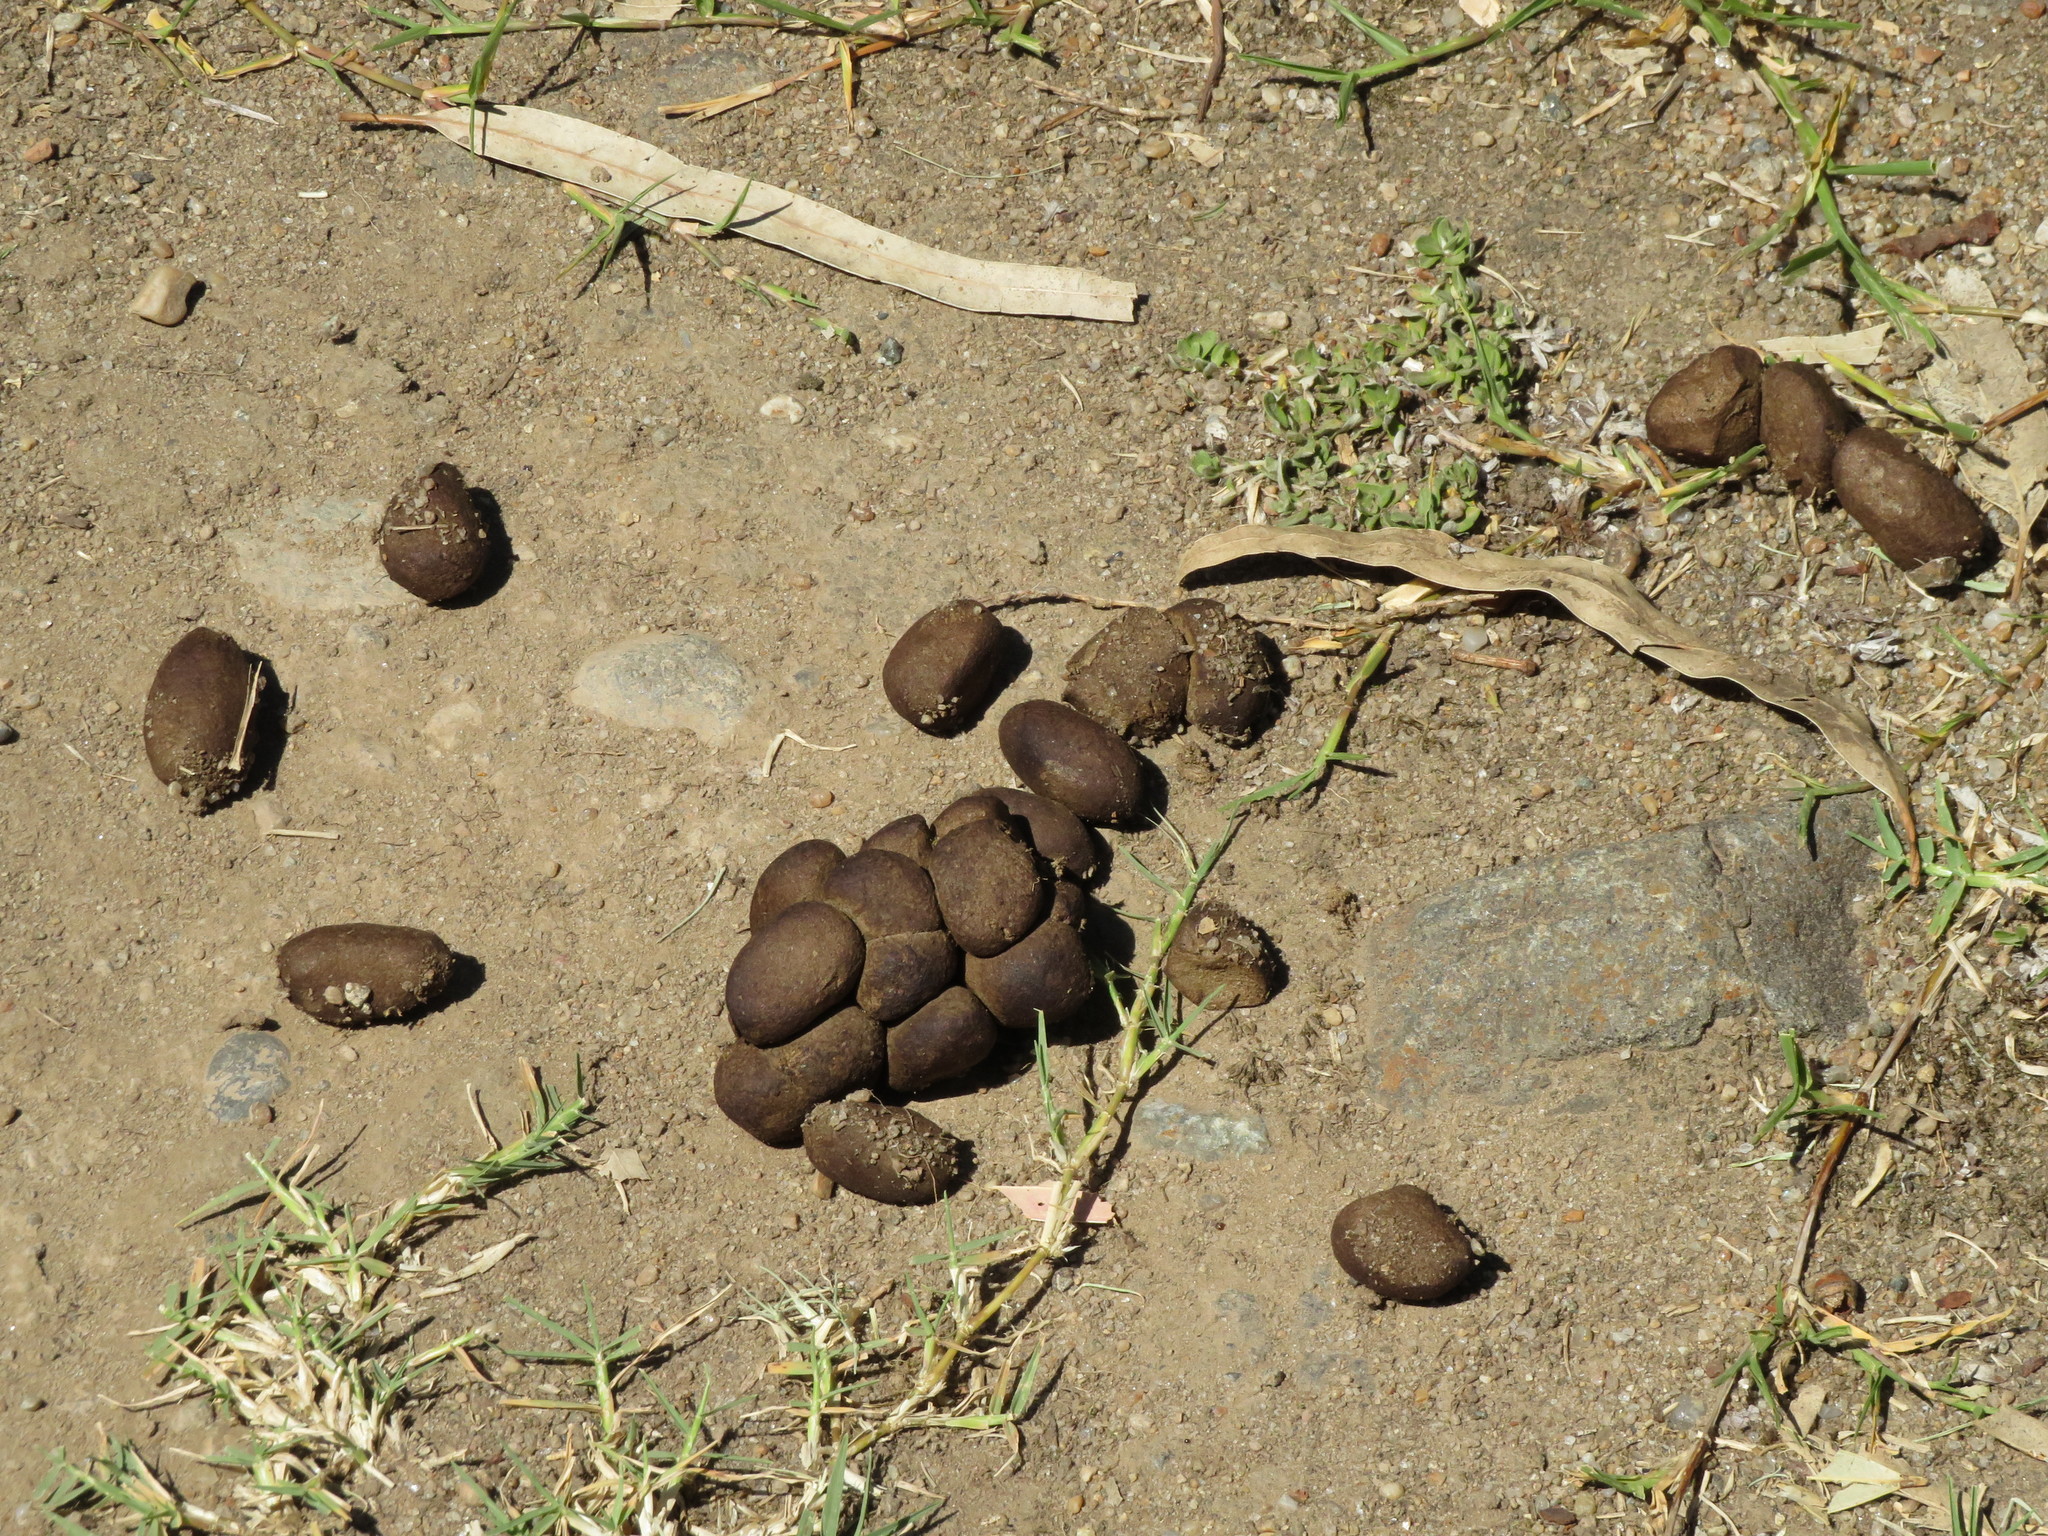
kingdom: Animalia
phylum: Chordata
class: Mammalia
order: Rodentia
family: Caviidae
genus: Hydrochoerus
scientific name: Hydrochoerus hydrochaeris
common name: Capybara
